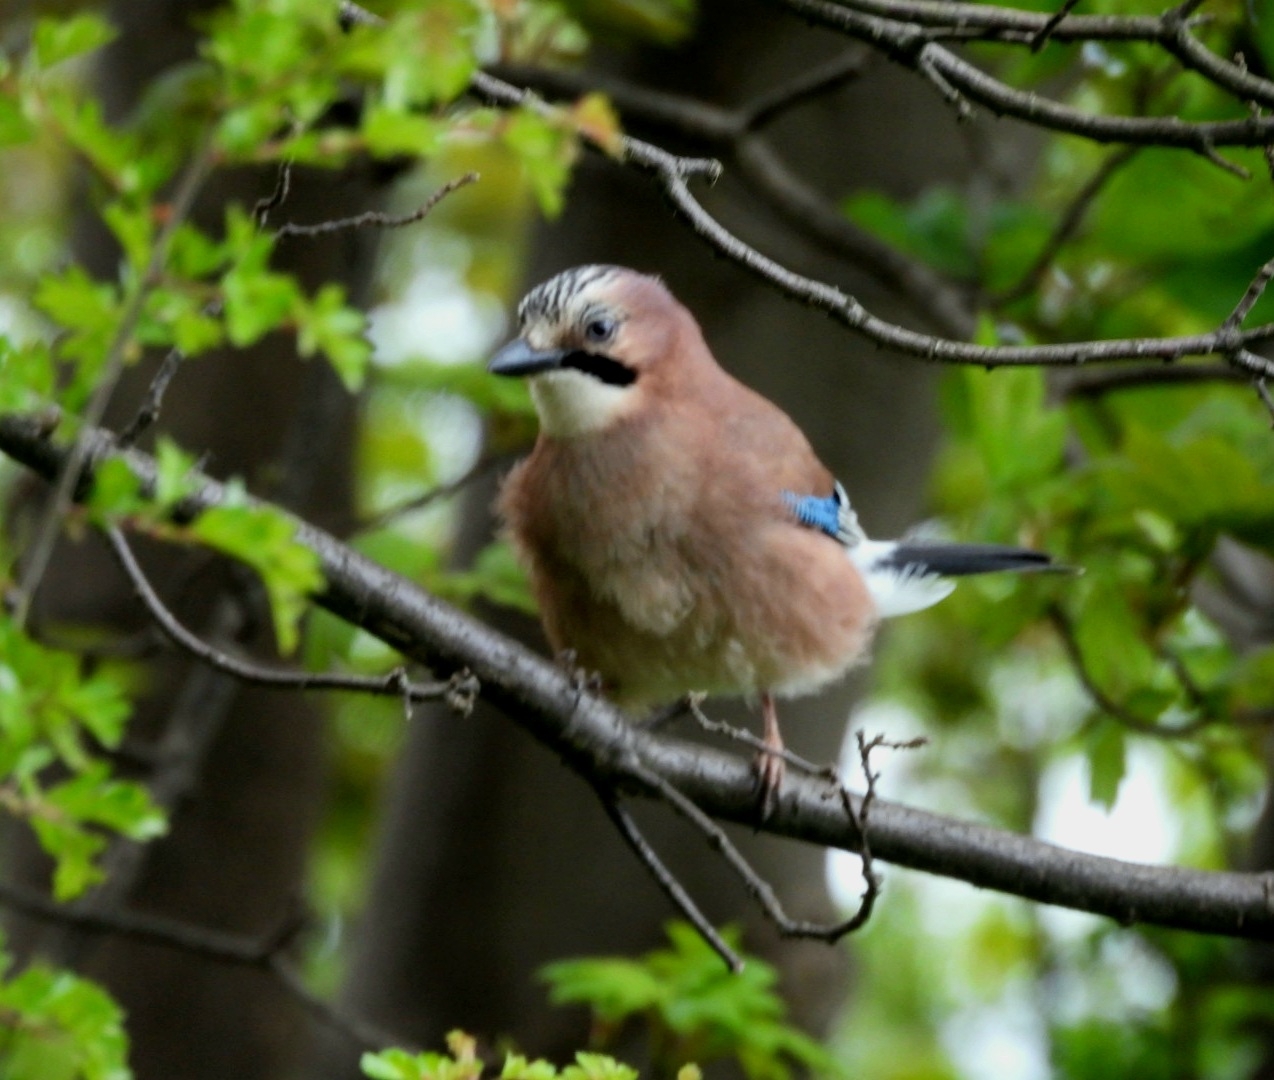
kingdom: Animalia
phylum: Chordata
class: Aves
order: Passeriformes
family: Corvidae
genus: Garrulus
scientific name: Garrulus glandarius
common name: Eurasian jay
